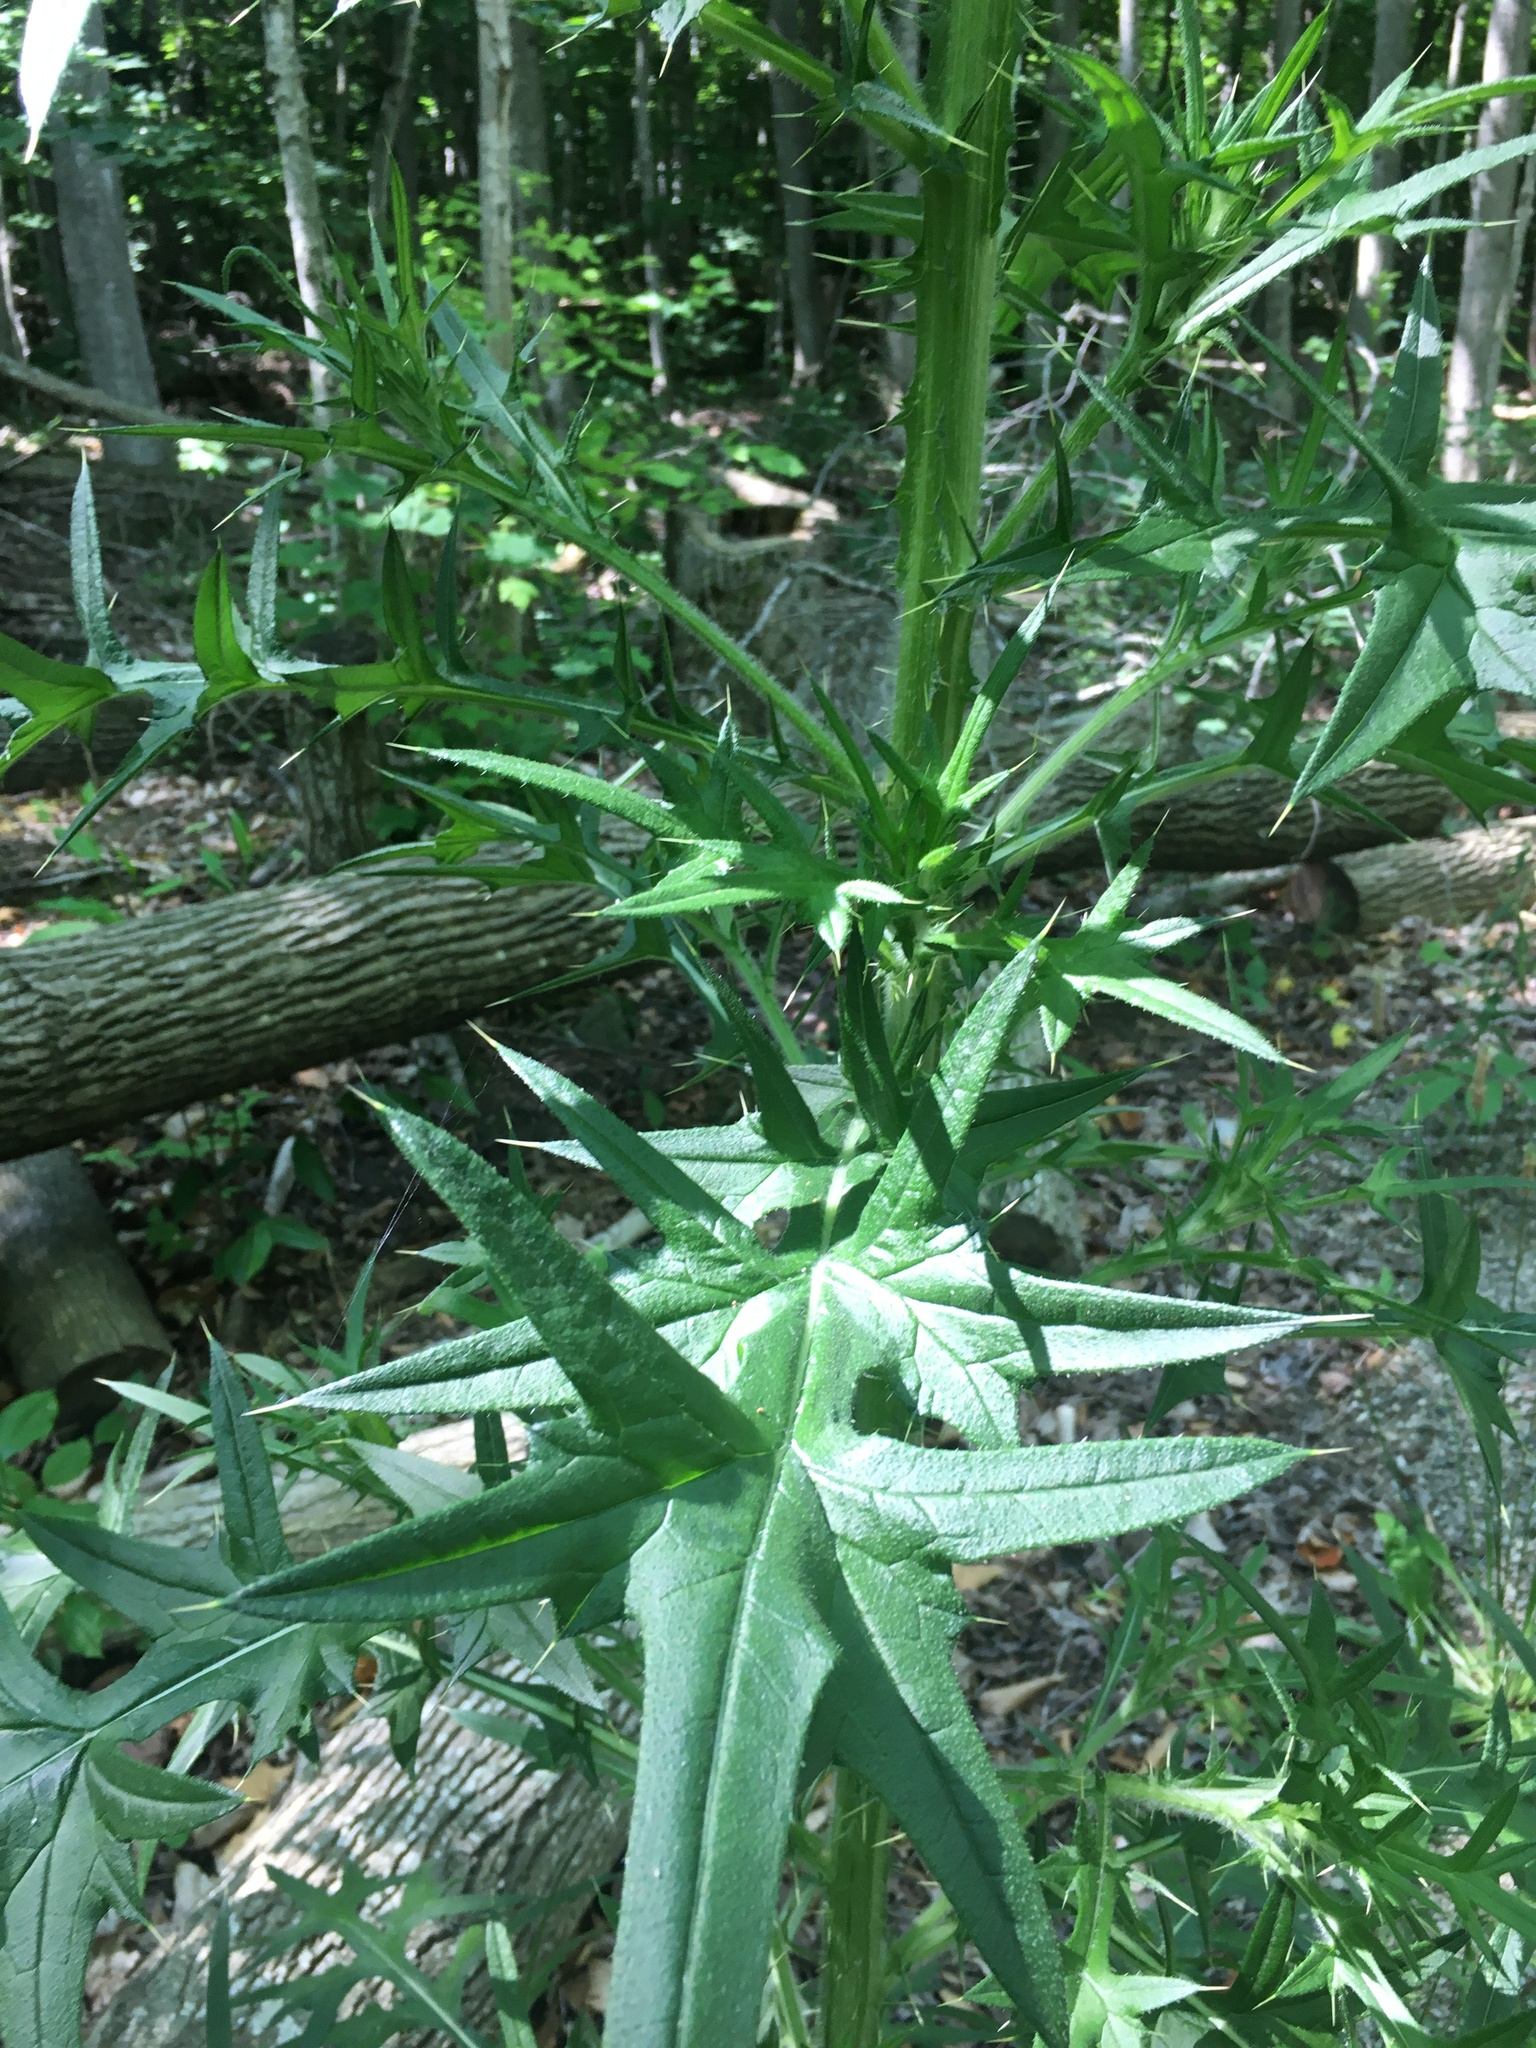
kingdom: Plantae
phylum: Tracheophyta
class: Magnoliopsida
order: Asterales
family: Asteraceae
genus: Cirsium
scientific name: Cirsium vulgare
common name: Bull thistle
